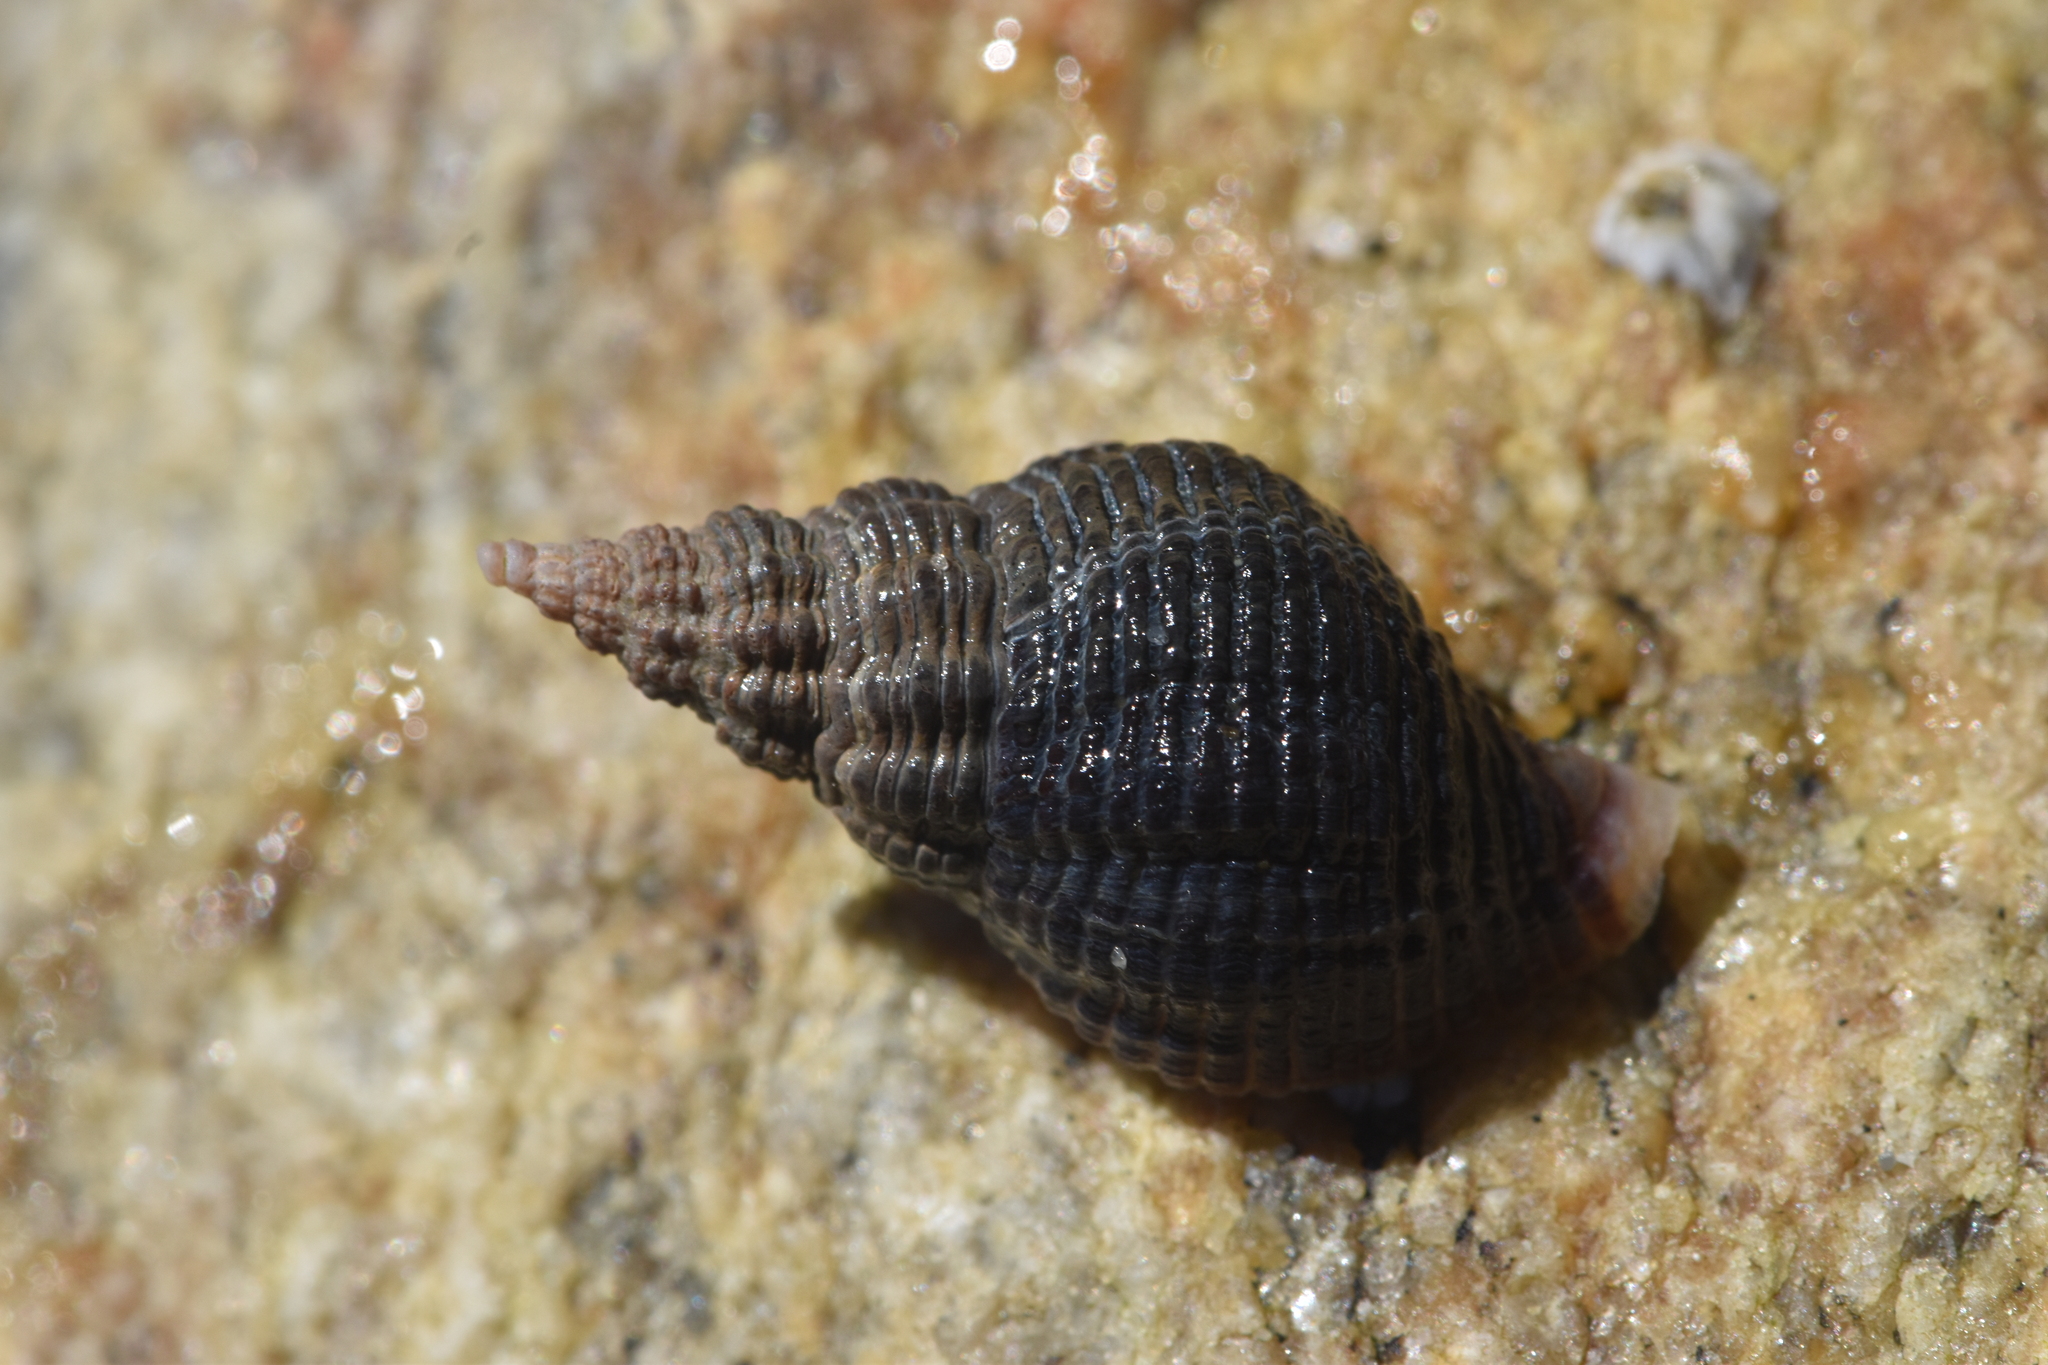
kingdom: Animalia
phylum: Mollusca
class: Gastropoda
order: Neogastropoda
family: Tudiclidae
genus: Lirabuccinum
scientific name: Lirabuccinum dirum
